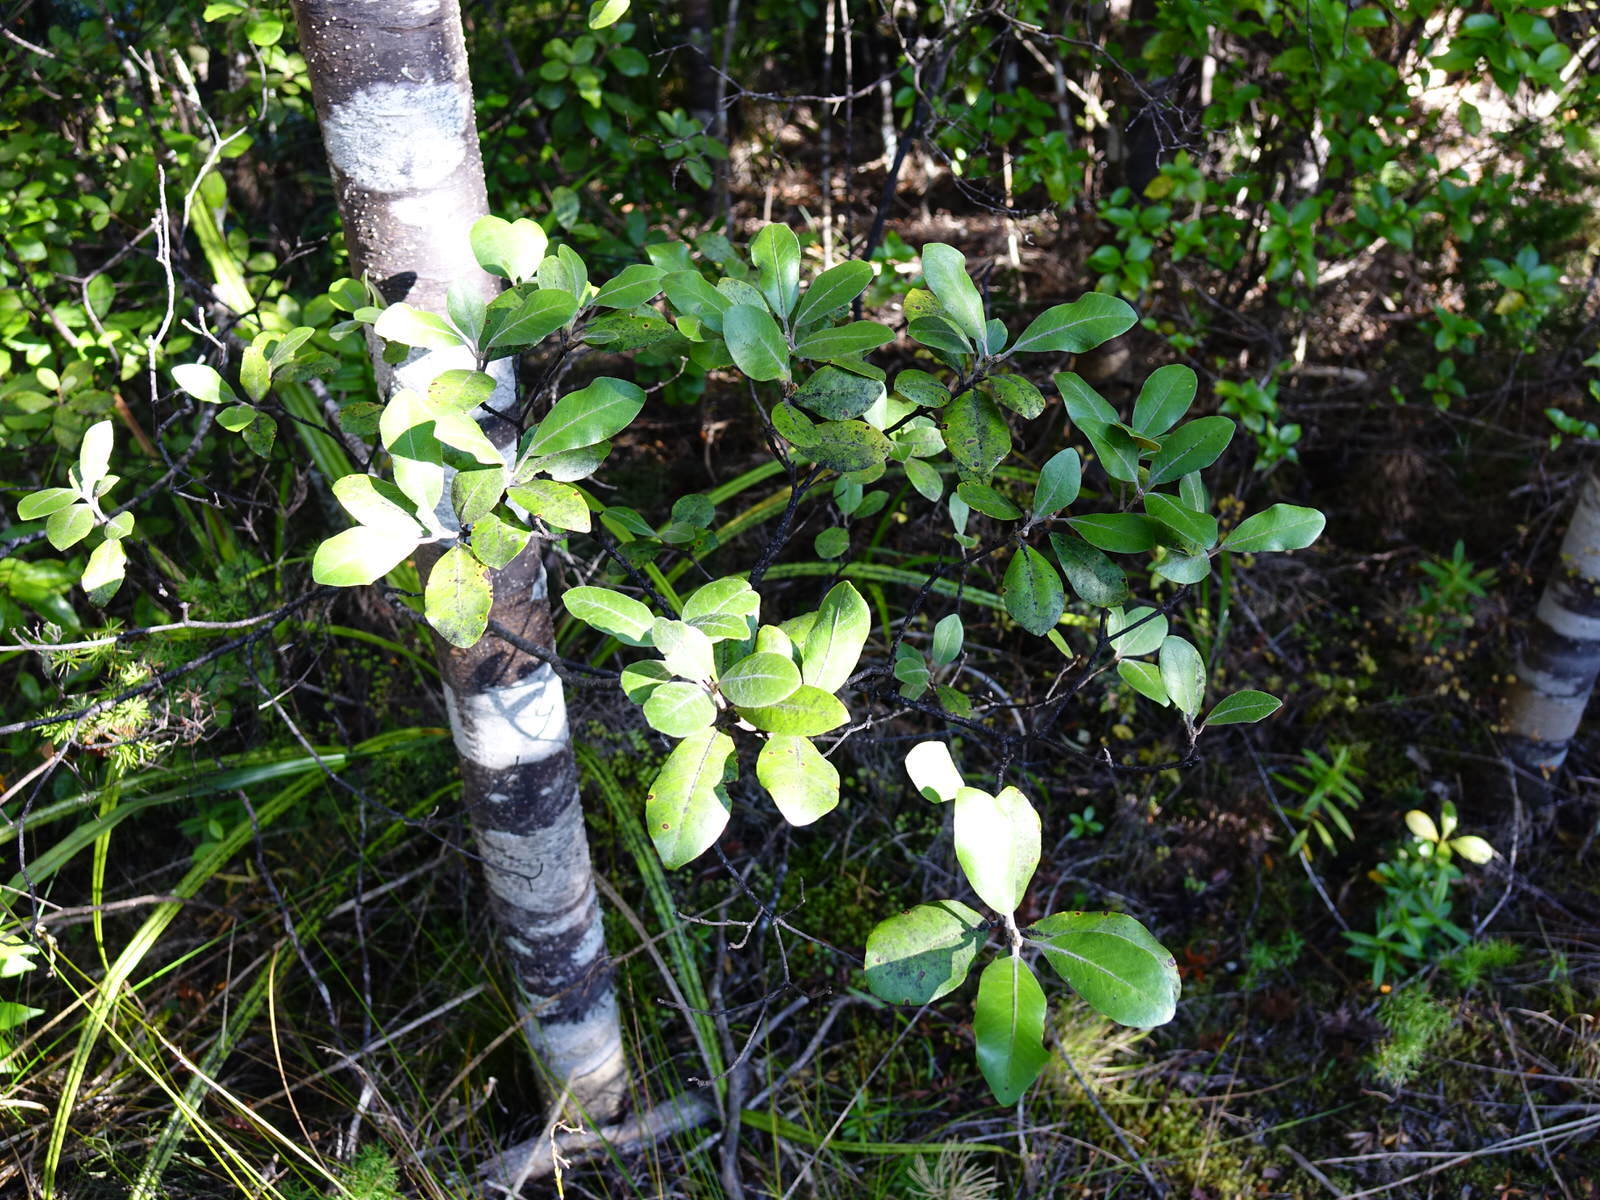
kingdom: Plantae
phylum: Tracheophyta
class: Magnoliopsida
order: Apiales
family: Pittosporaceae
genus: Pittosporum
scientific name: Pittosporum ellipticum
